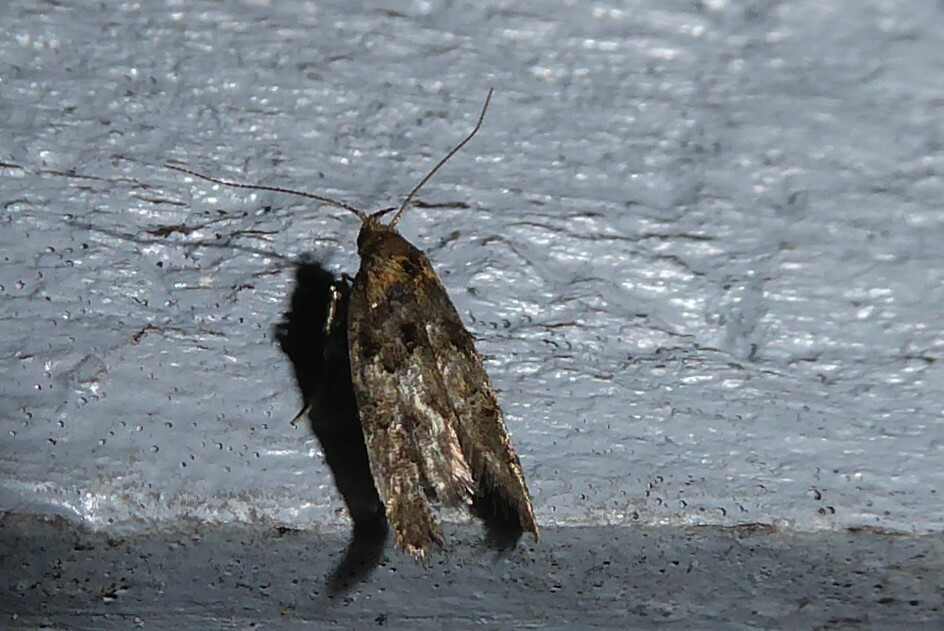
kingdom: Animalia
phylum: Arthropoda
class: Insecta
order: Lepidoptera
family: Oecophoridae
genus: Trachypepla
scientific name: Trachypepla anastrella
